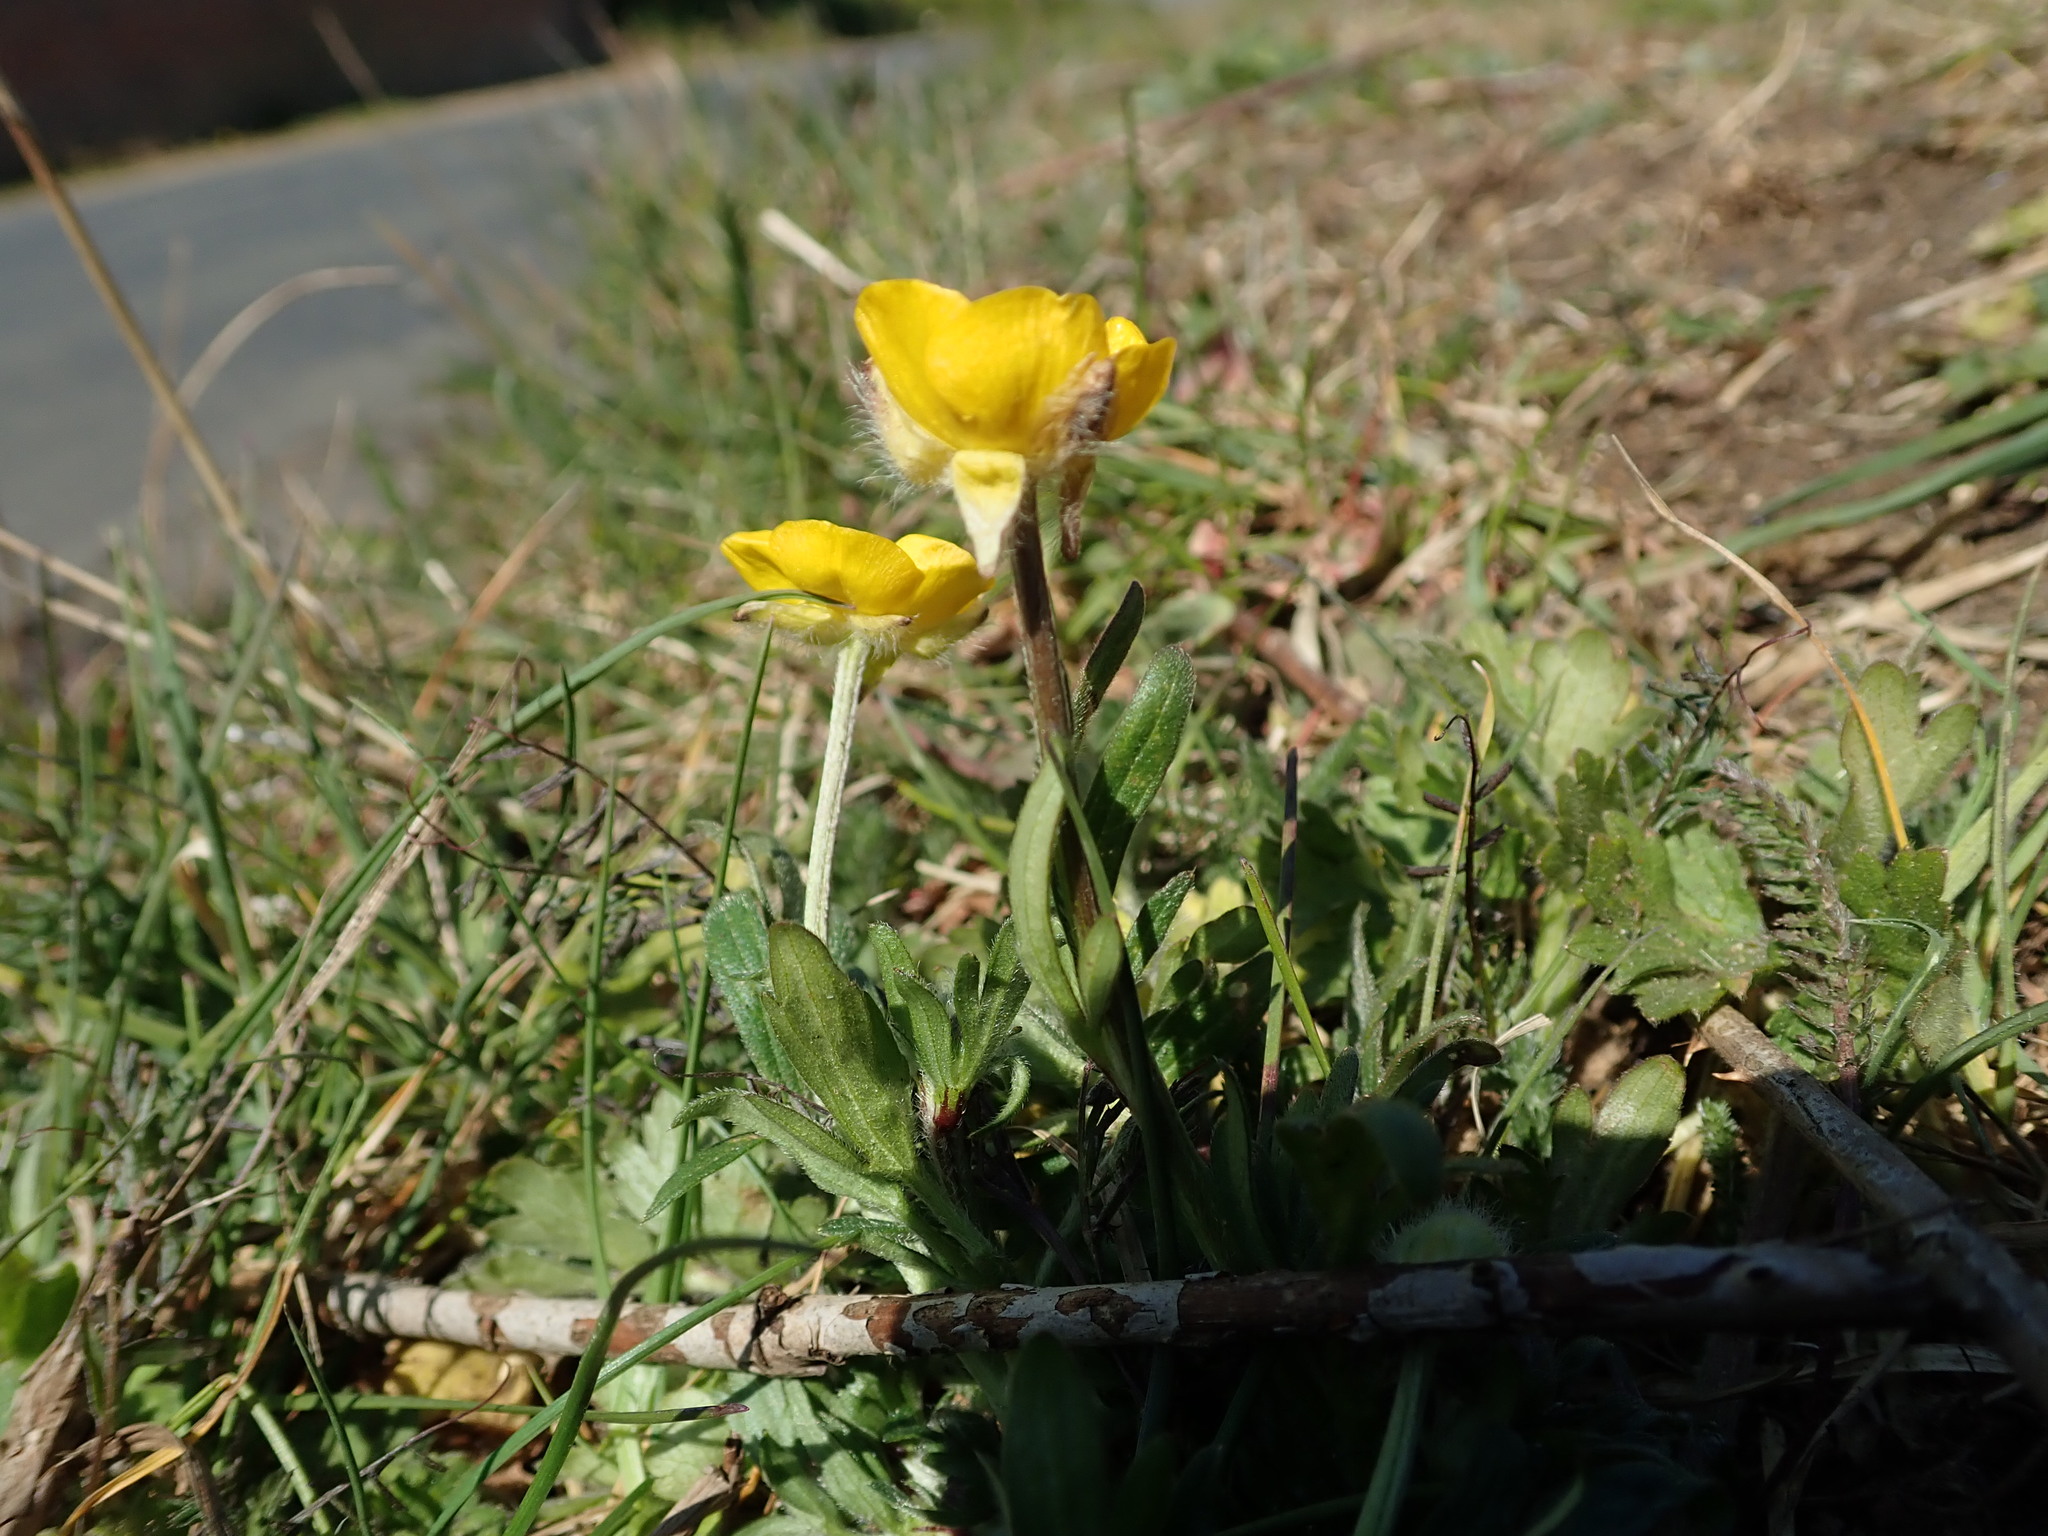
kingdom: Plantae
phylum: Tracheophyta
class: Magnoliopsida
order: Ranunculales
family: Ranunculaceae
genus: Ranunculus
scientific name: Ranunculus bulbosus
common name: Bulbous buttercup
